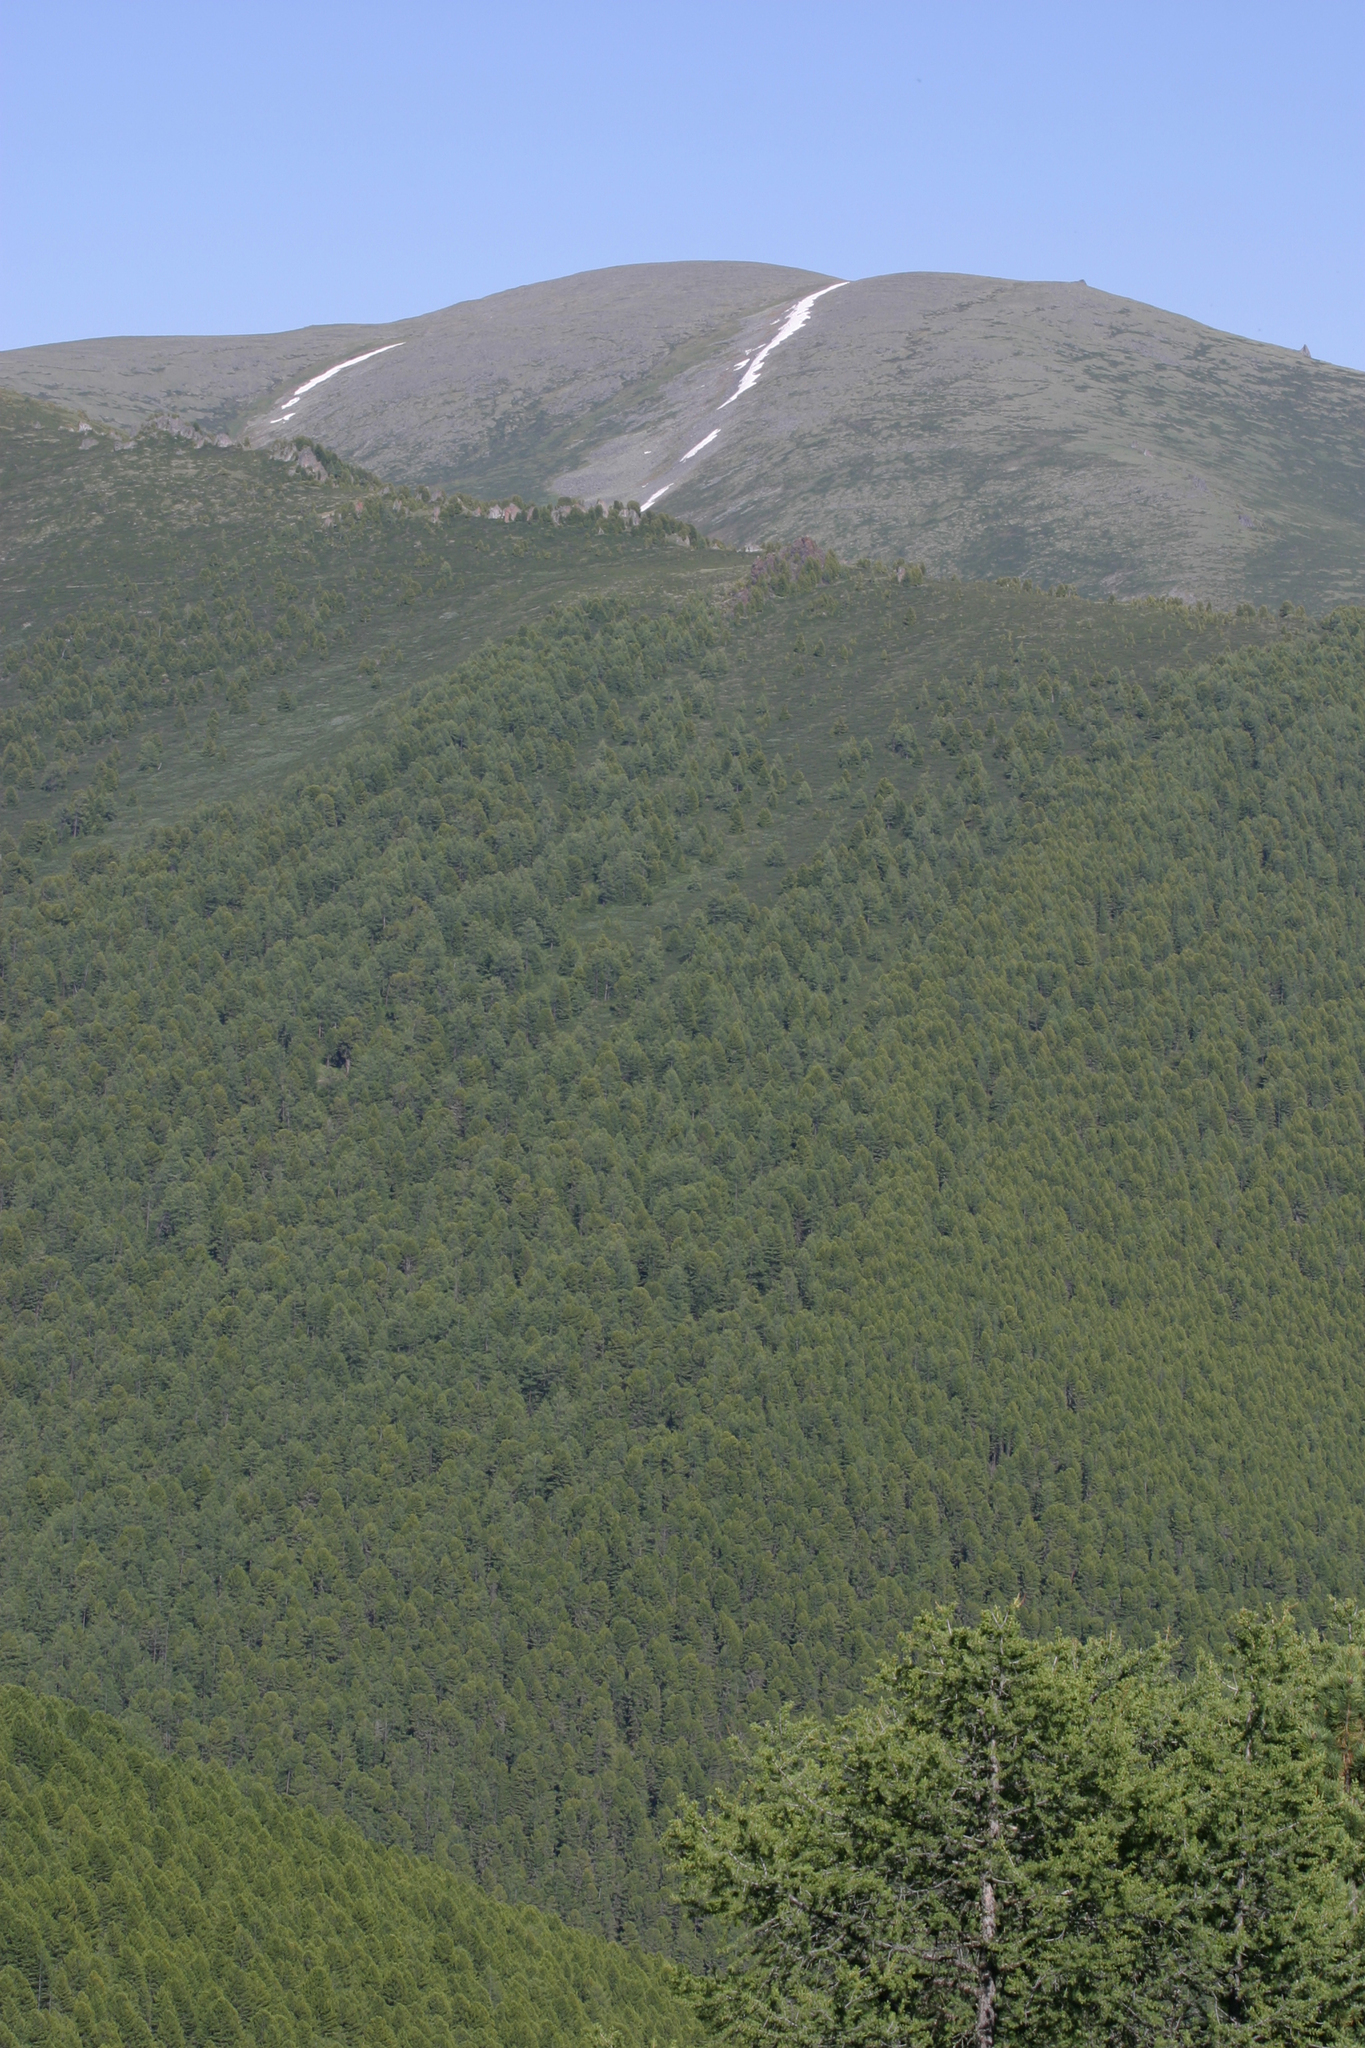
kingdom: Plantae
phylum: Tracheophyta
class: Pinopsida
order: Pinales
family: Pinaceae
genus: Pinus
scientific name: Pinus sibirica
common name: Siberian pine
